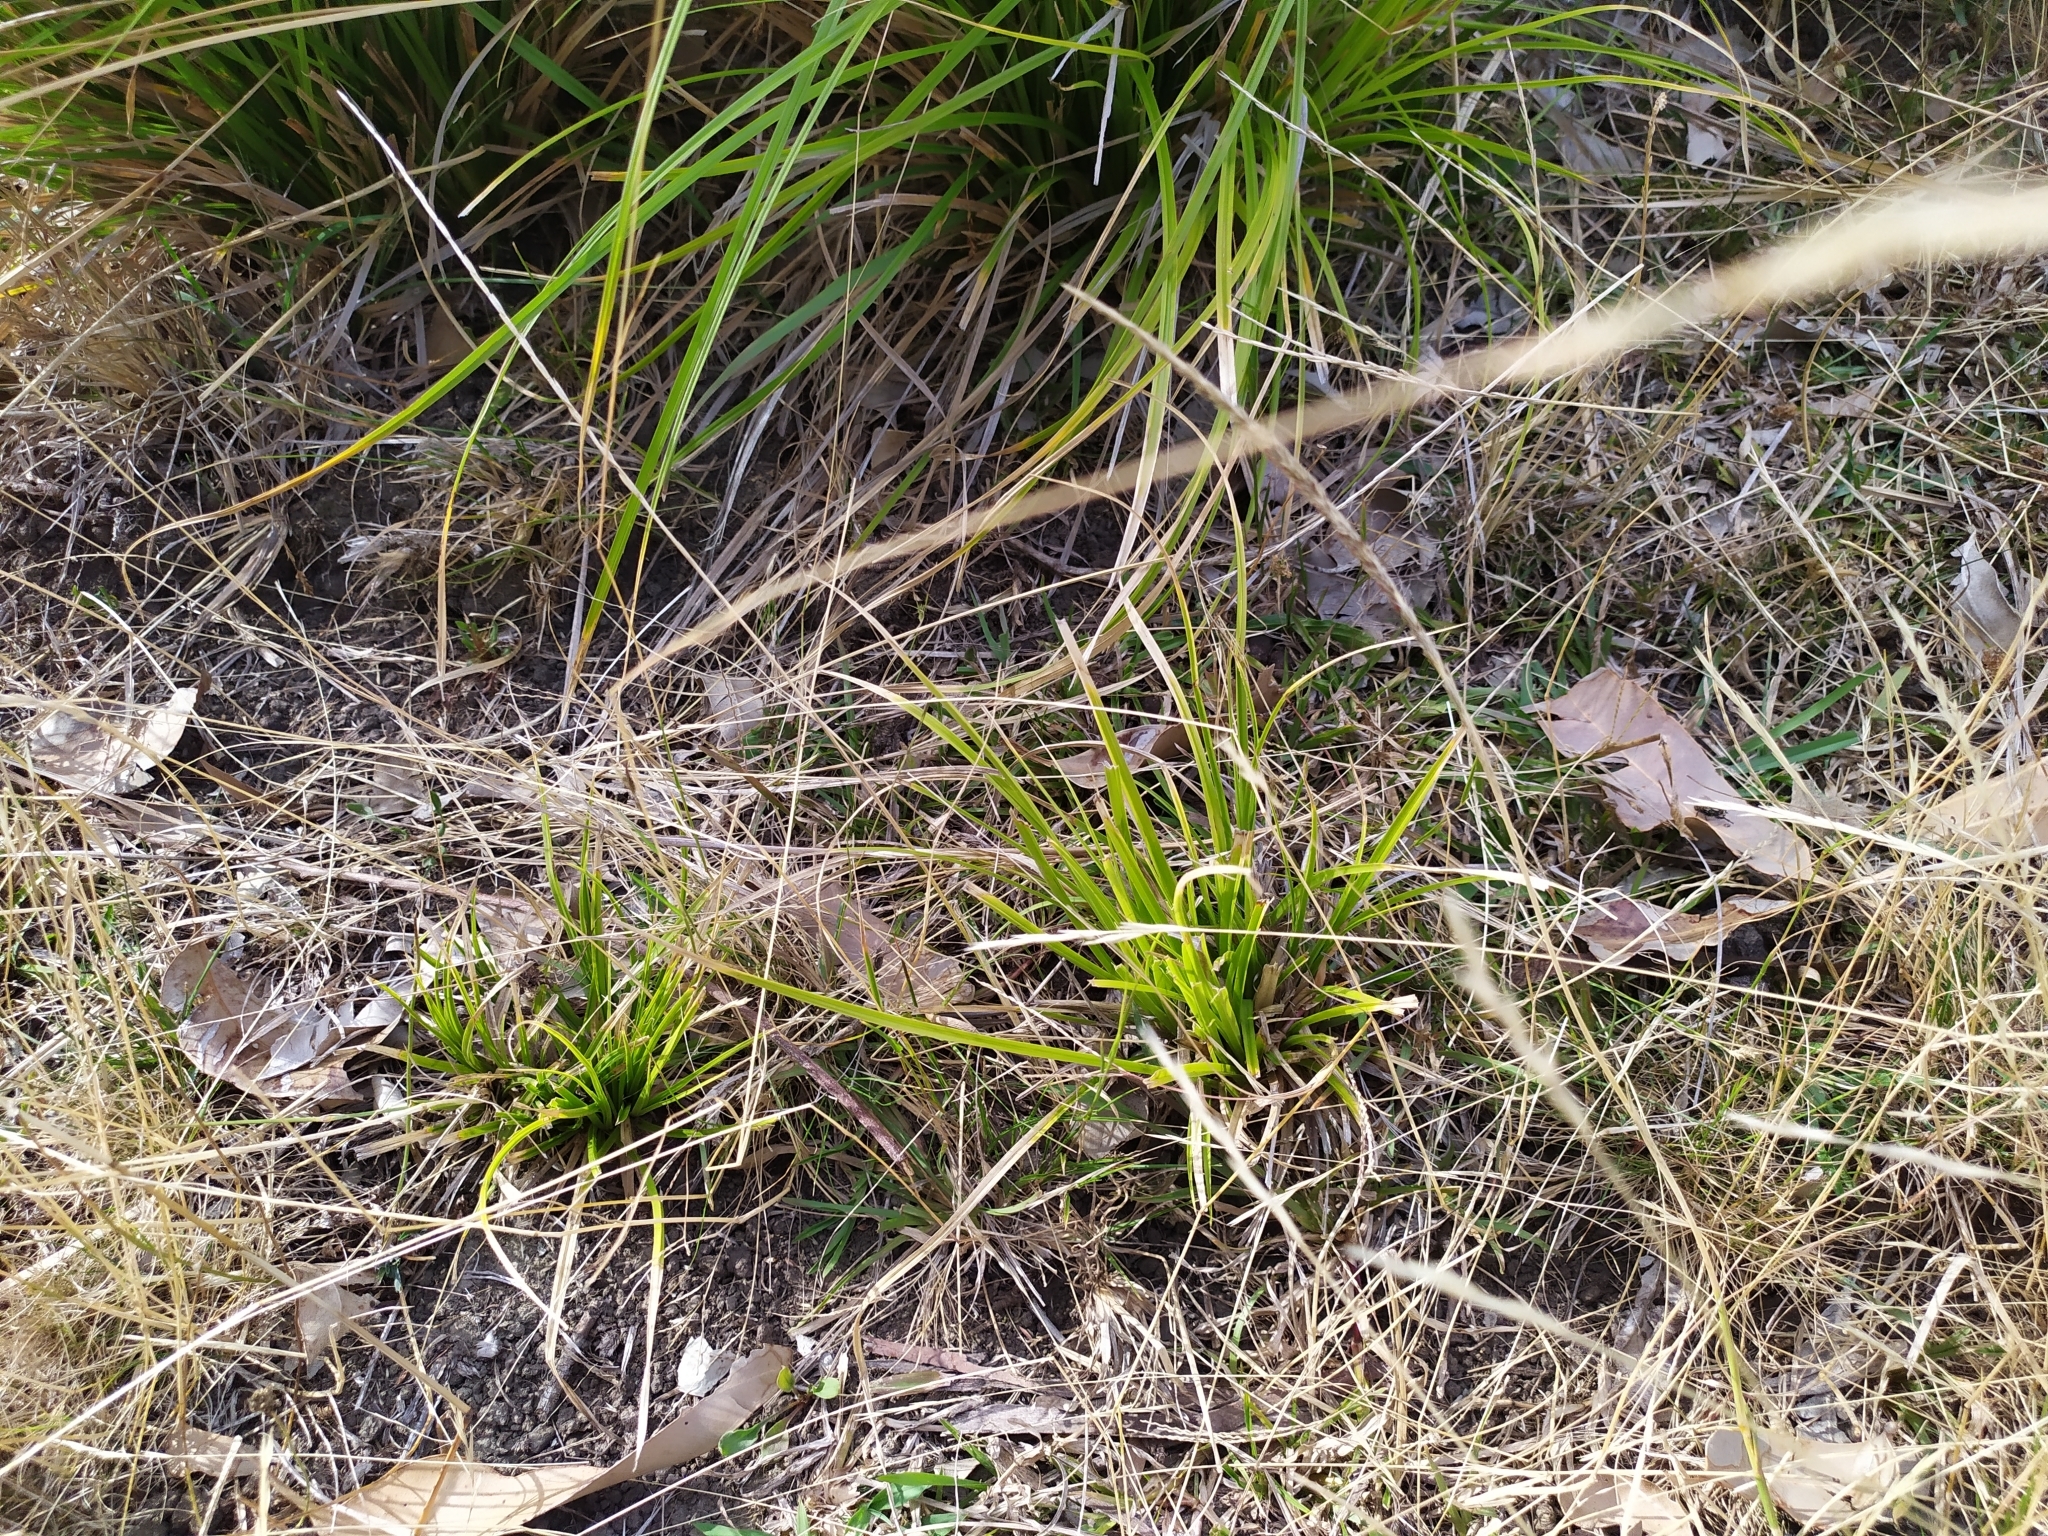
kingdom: Plantae
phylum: Tracheophyta
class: Liliopsida
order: Poales
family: Cyperaceae
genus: Carex
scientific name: Carex longebrachiata
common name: Drooping sedge
